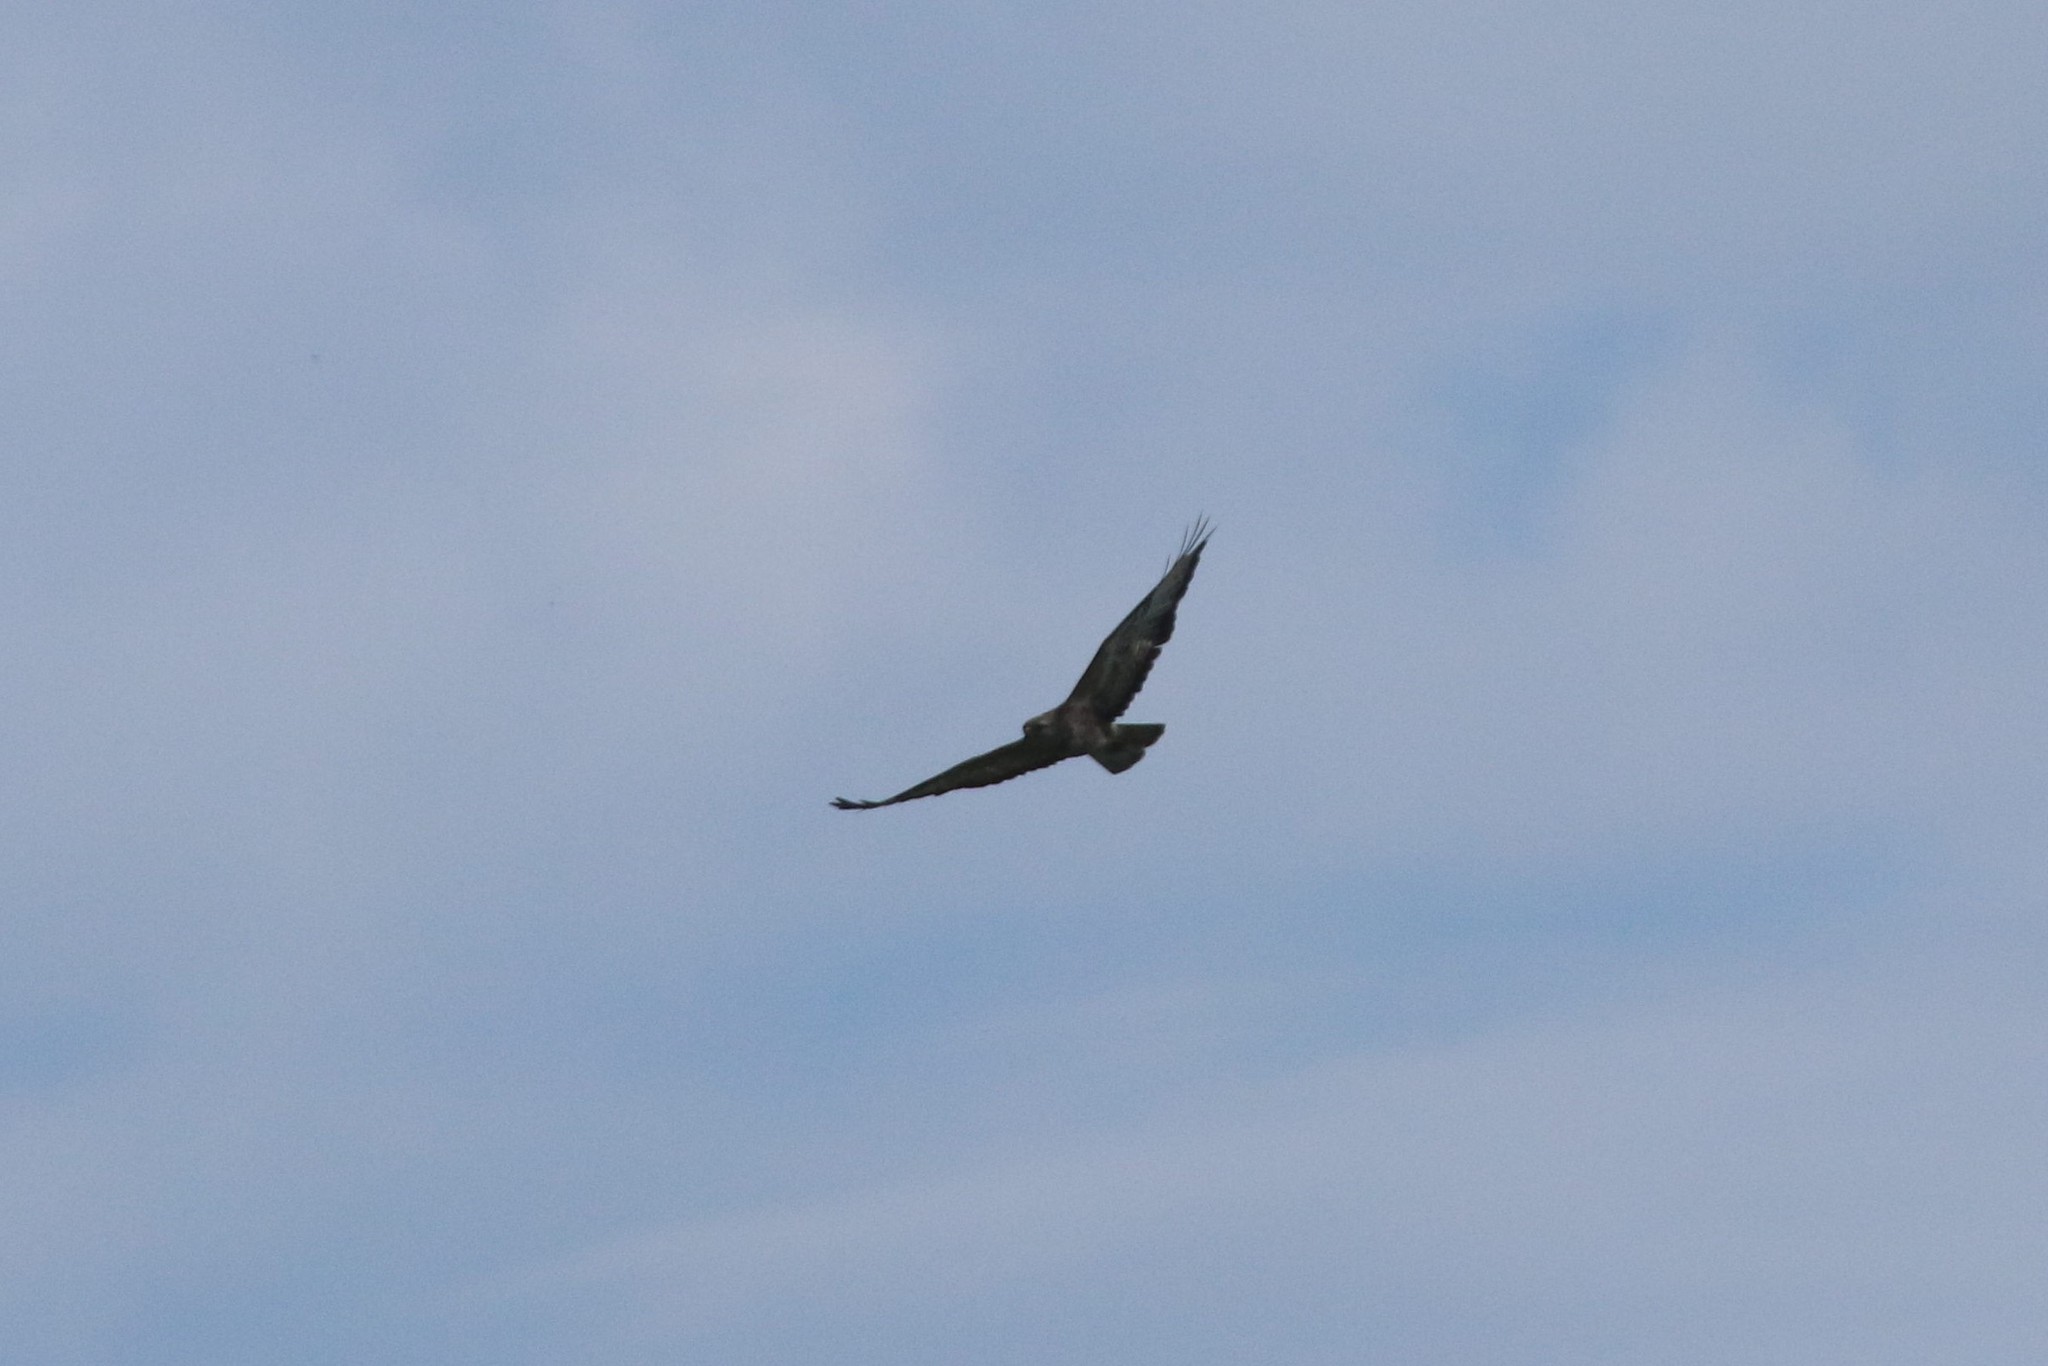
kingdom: Animalia
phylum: Chordata
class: Aves
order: Accipitriformes
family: Accipitridae
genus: Buteo
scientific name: Buteo buteo
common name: Common buzzard
